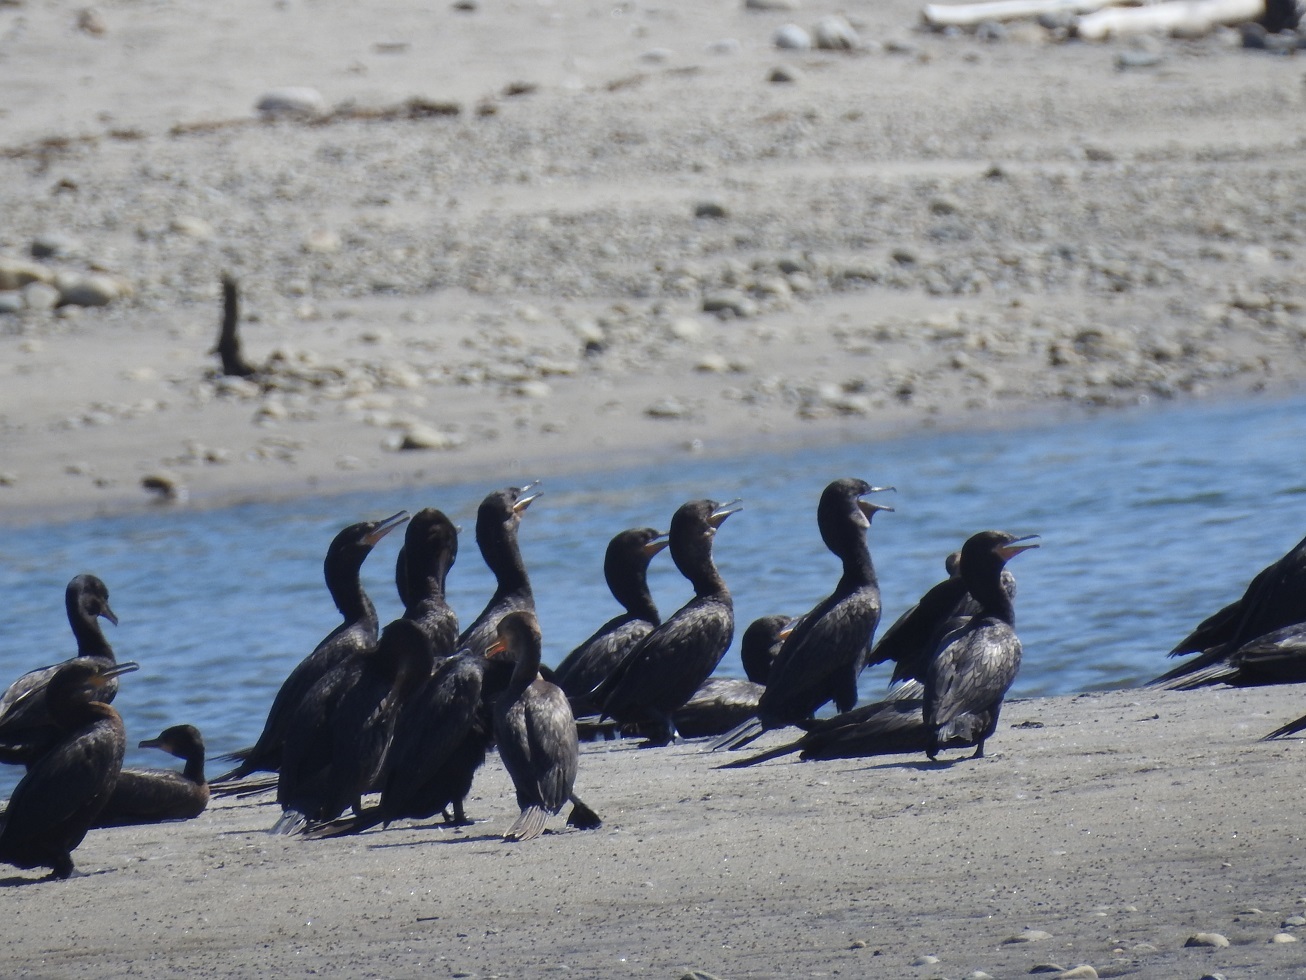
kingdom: Animalia
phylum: Chordata
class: Aves
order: Suliformes
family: Phalacrocoracidae
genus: Phalacrocorax
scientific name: Phalacrocorax brasilianus
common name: Neotropic cormorant
